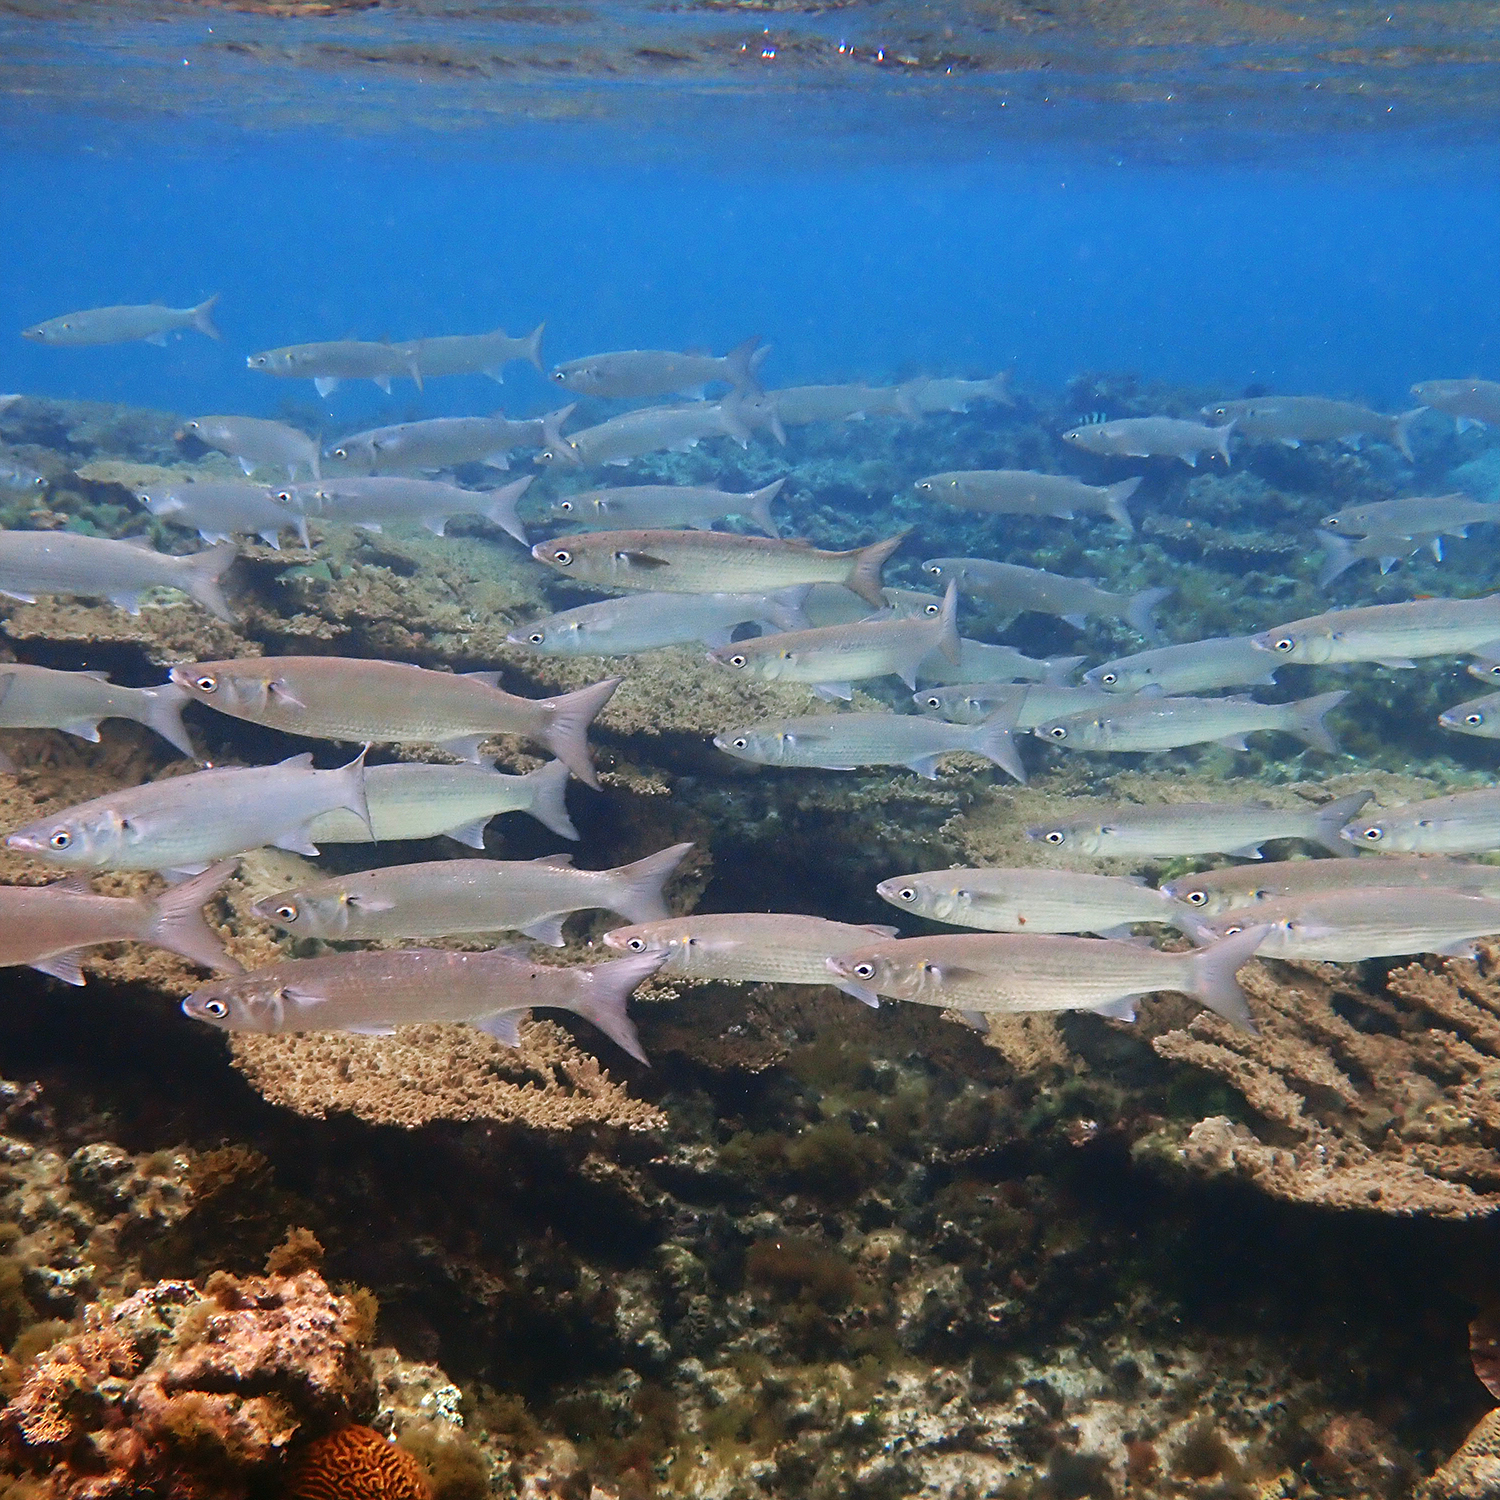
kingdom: Animalia
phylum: Chordata
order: Mugiliformes
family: Mugilidae
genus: Myxus
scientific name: Myxus elongatus
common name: Sand grey mullet
